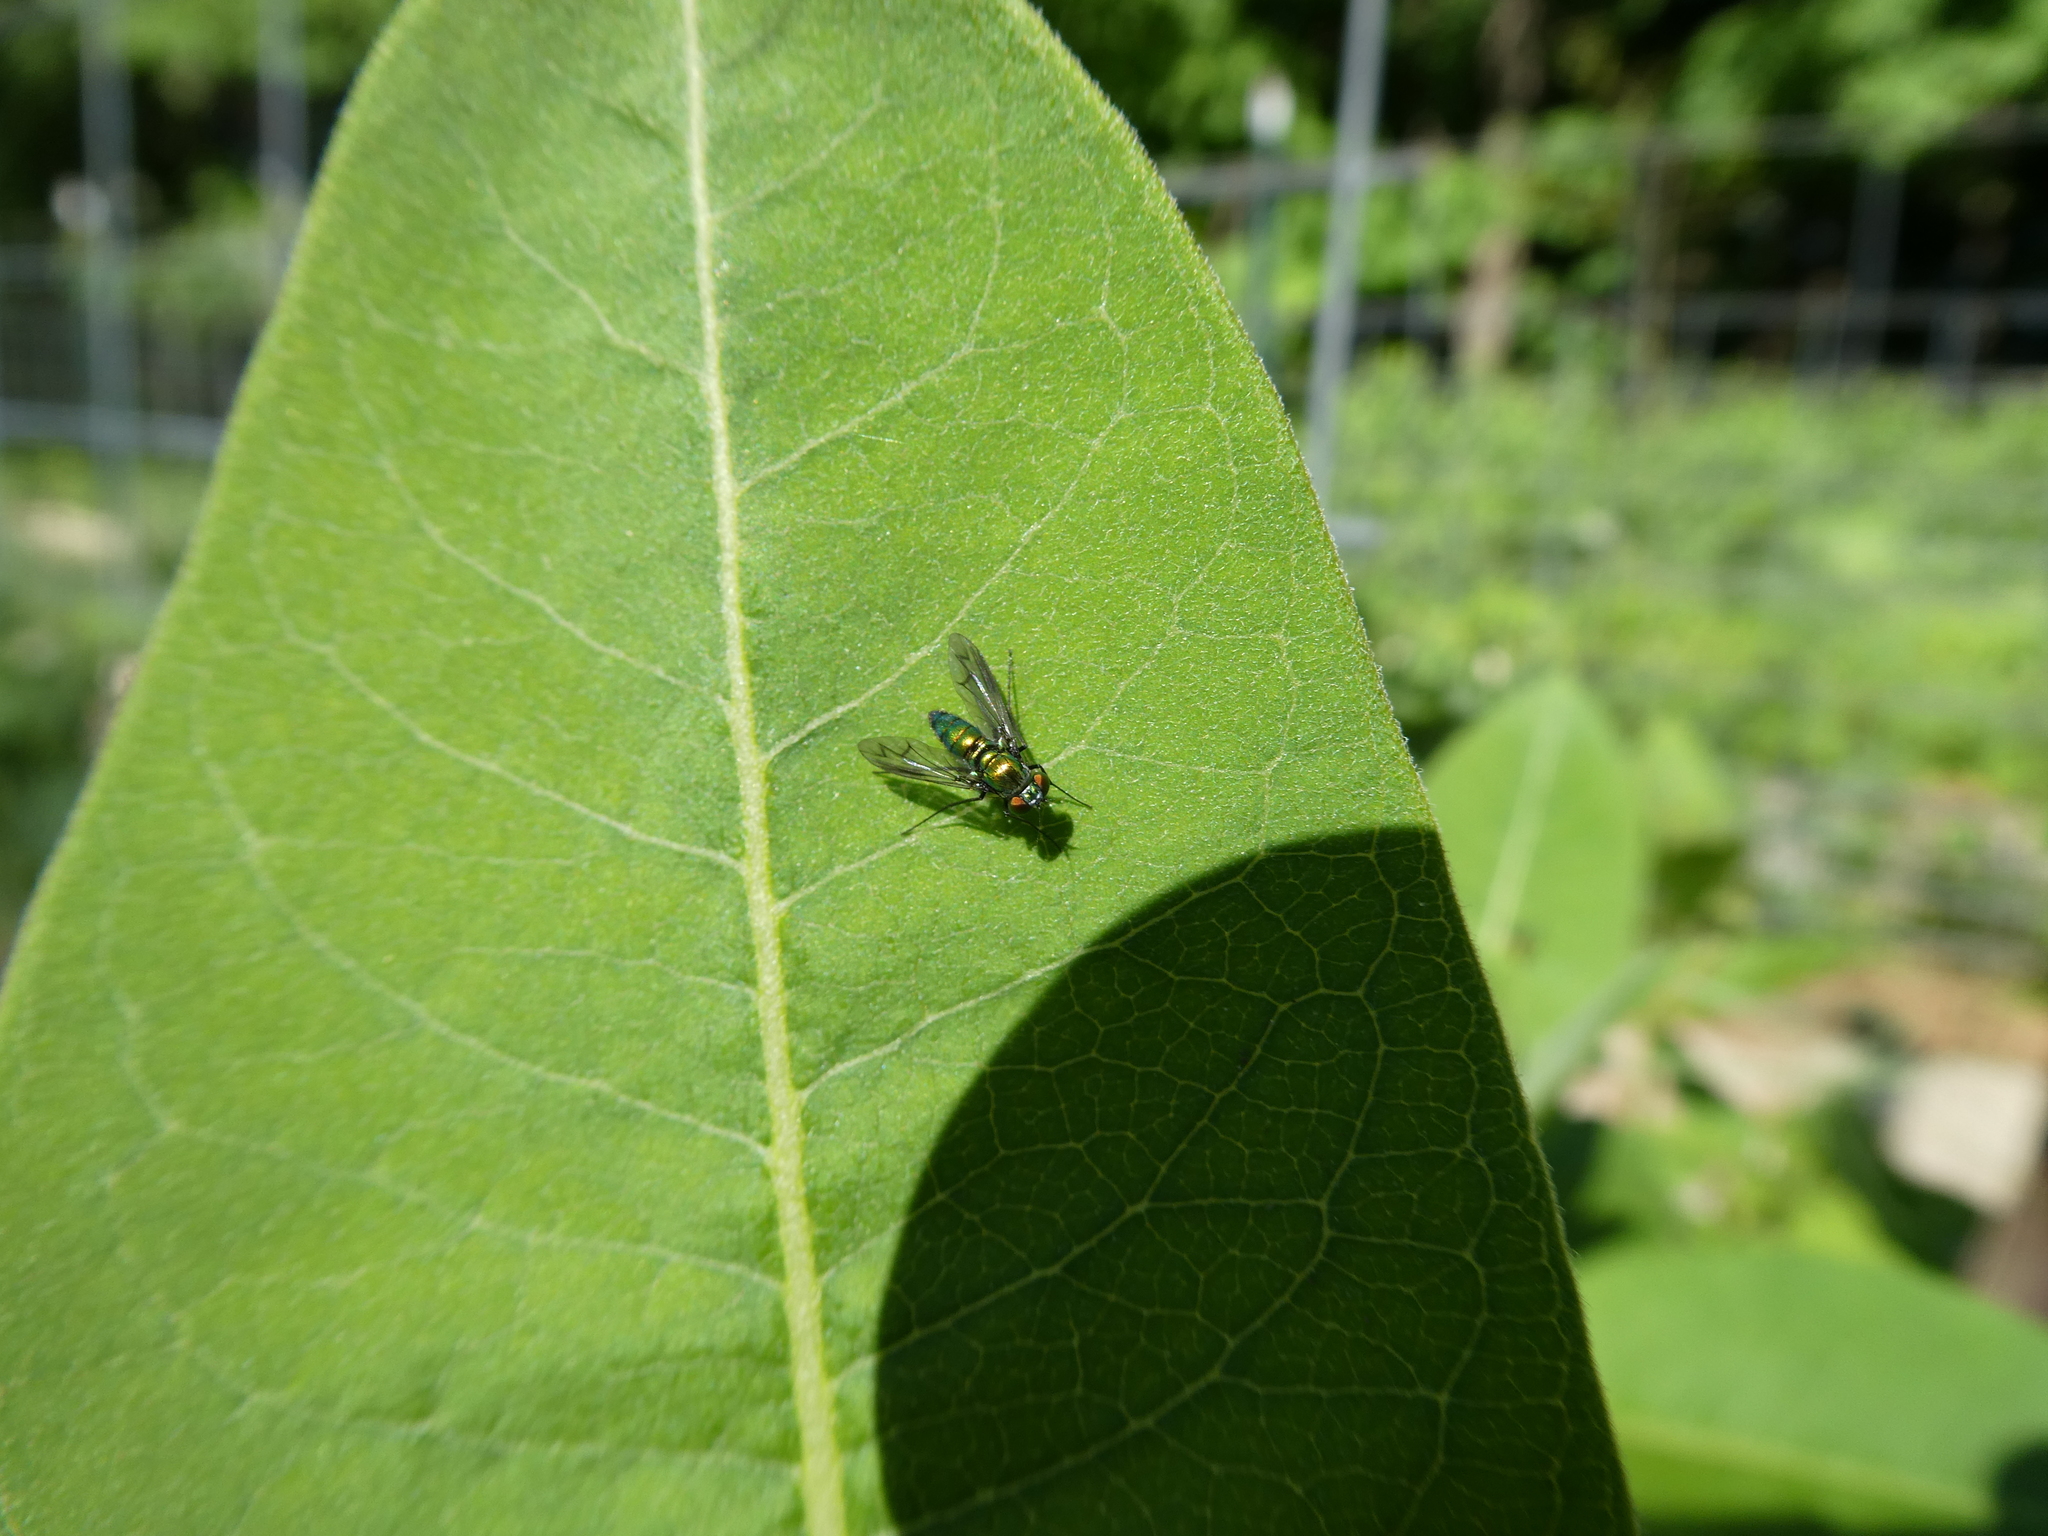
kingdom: Animalia
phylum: Arthropoda
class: Insecta
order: Diptera
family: Dolichopodidae
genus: Condylostylus
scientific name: Condylostylus patibulatus
